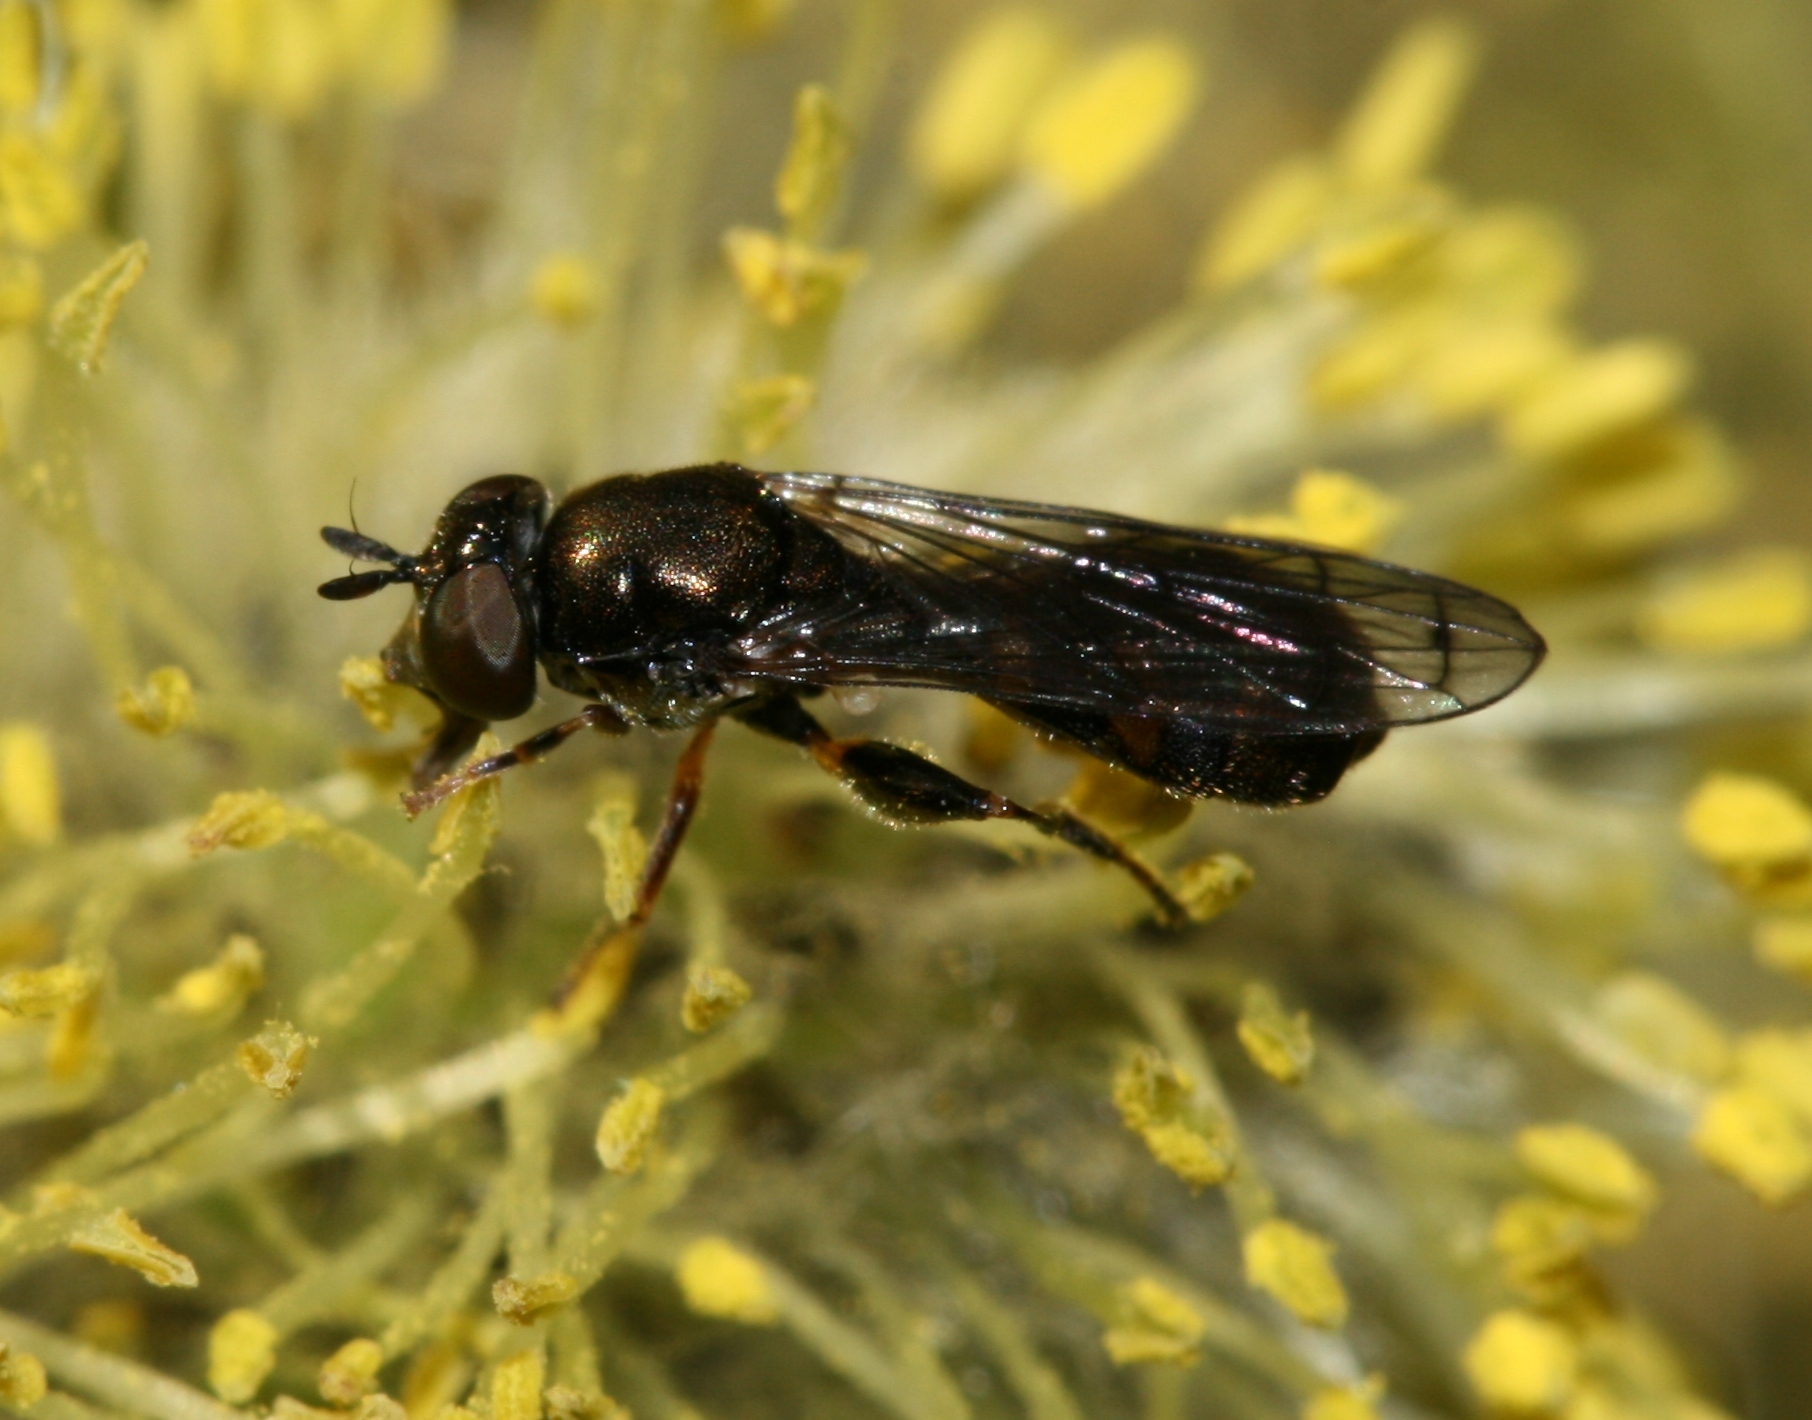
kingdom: Animalia
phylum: Arthropoda
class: Insecta
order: Diptera
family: Syrphidae
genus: Neoascia
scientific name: Neoascia
